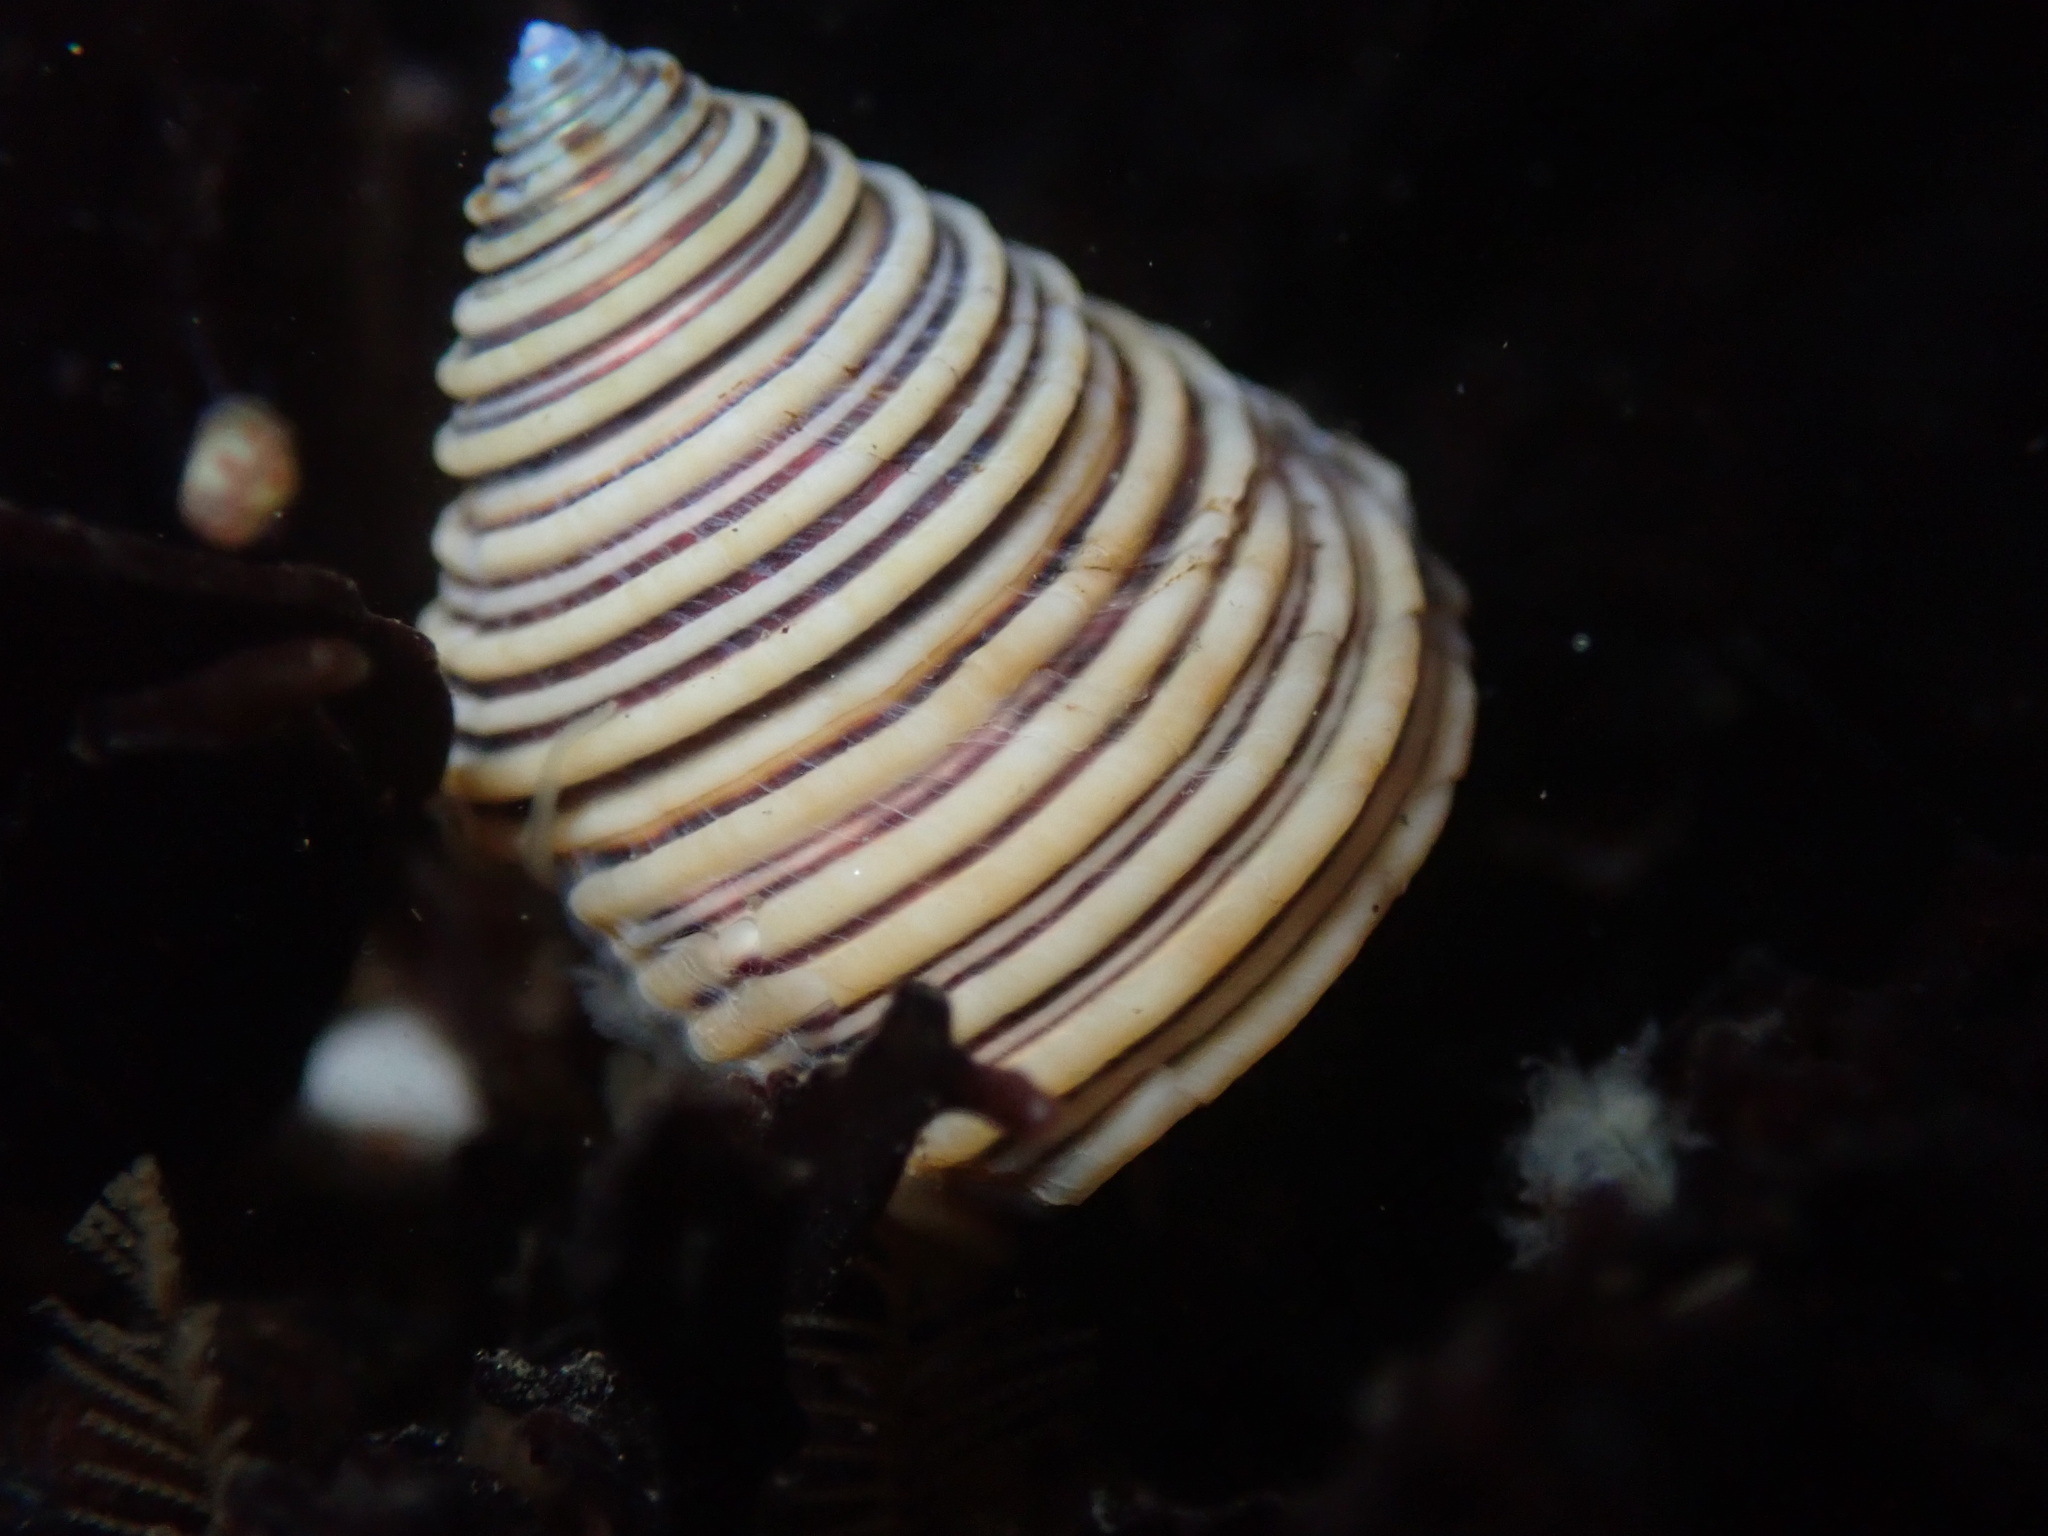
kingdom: Animalia
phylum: Mollusca
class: Gastropoda
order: Trochida
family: Calliostomatidae
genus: Calliostoma
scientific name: Calliostoma canaliculatum
